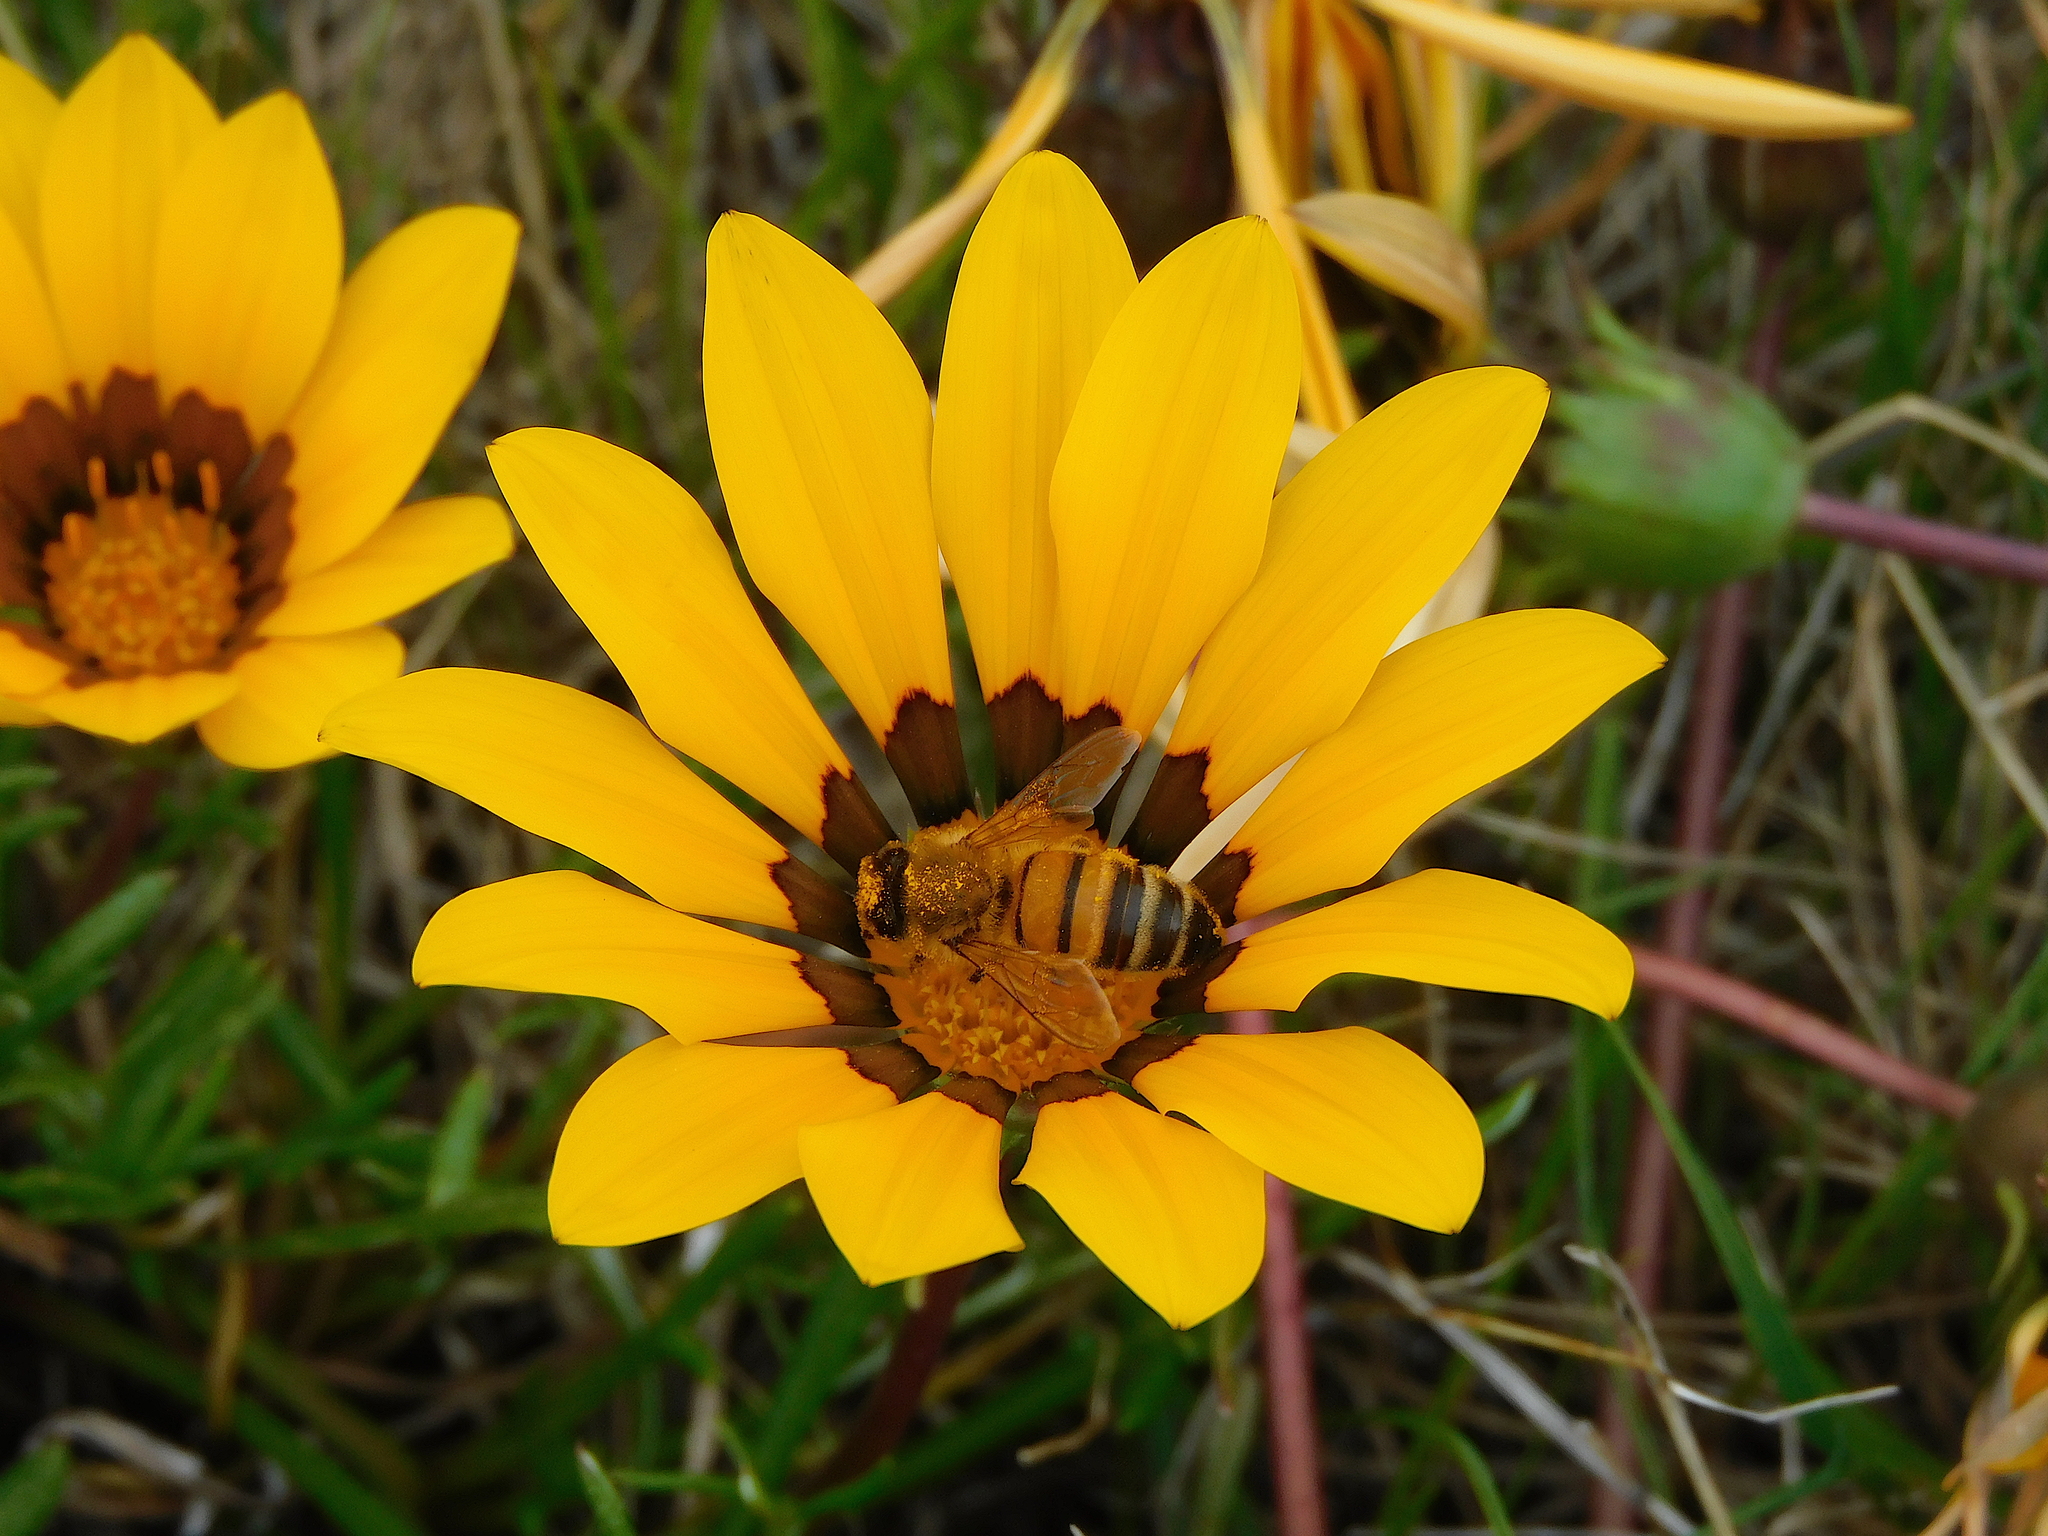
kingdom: Animalia
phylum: Arthropoda
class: Insecta
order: Hymenoptera
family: Apidae
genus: Apis
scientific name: Apis mellifera
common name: Honey bee
